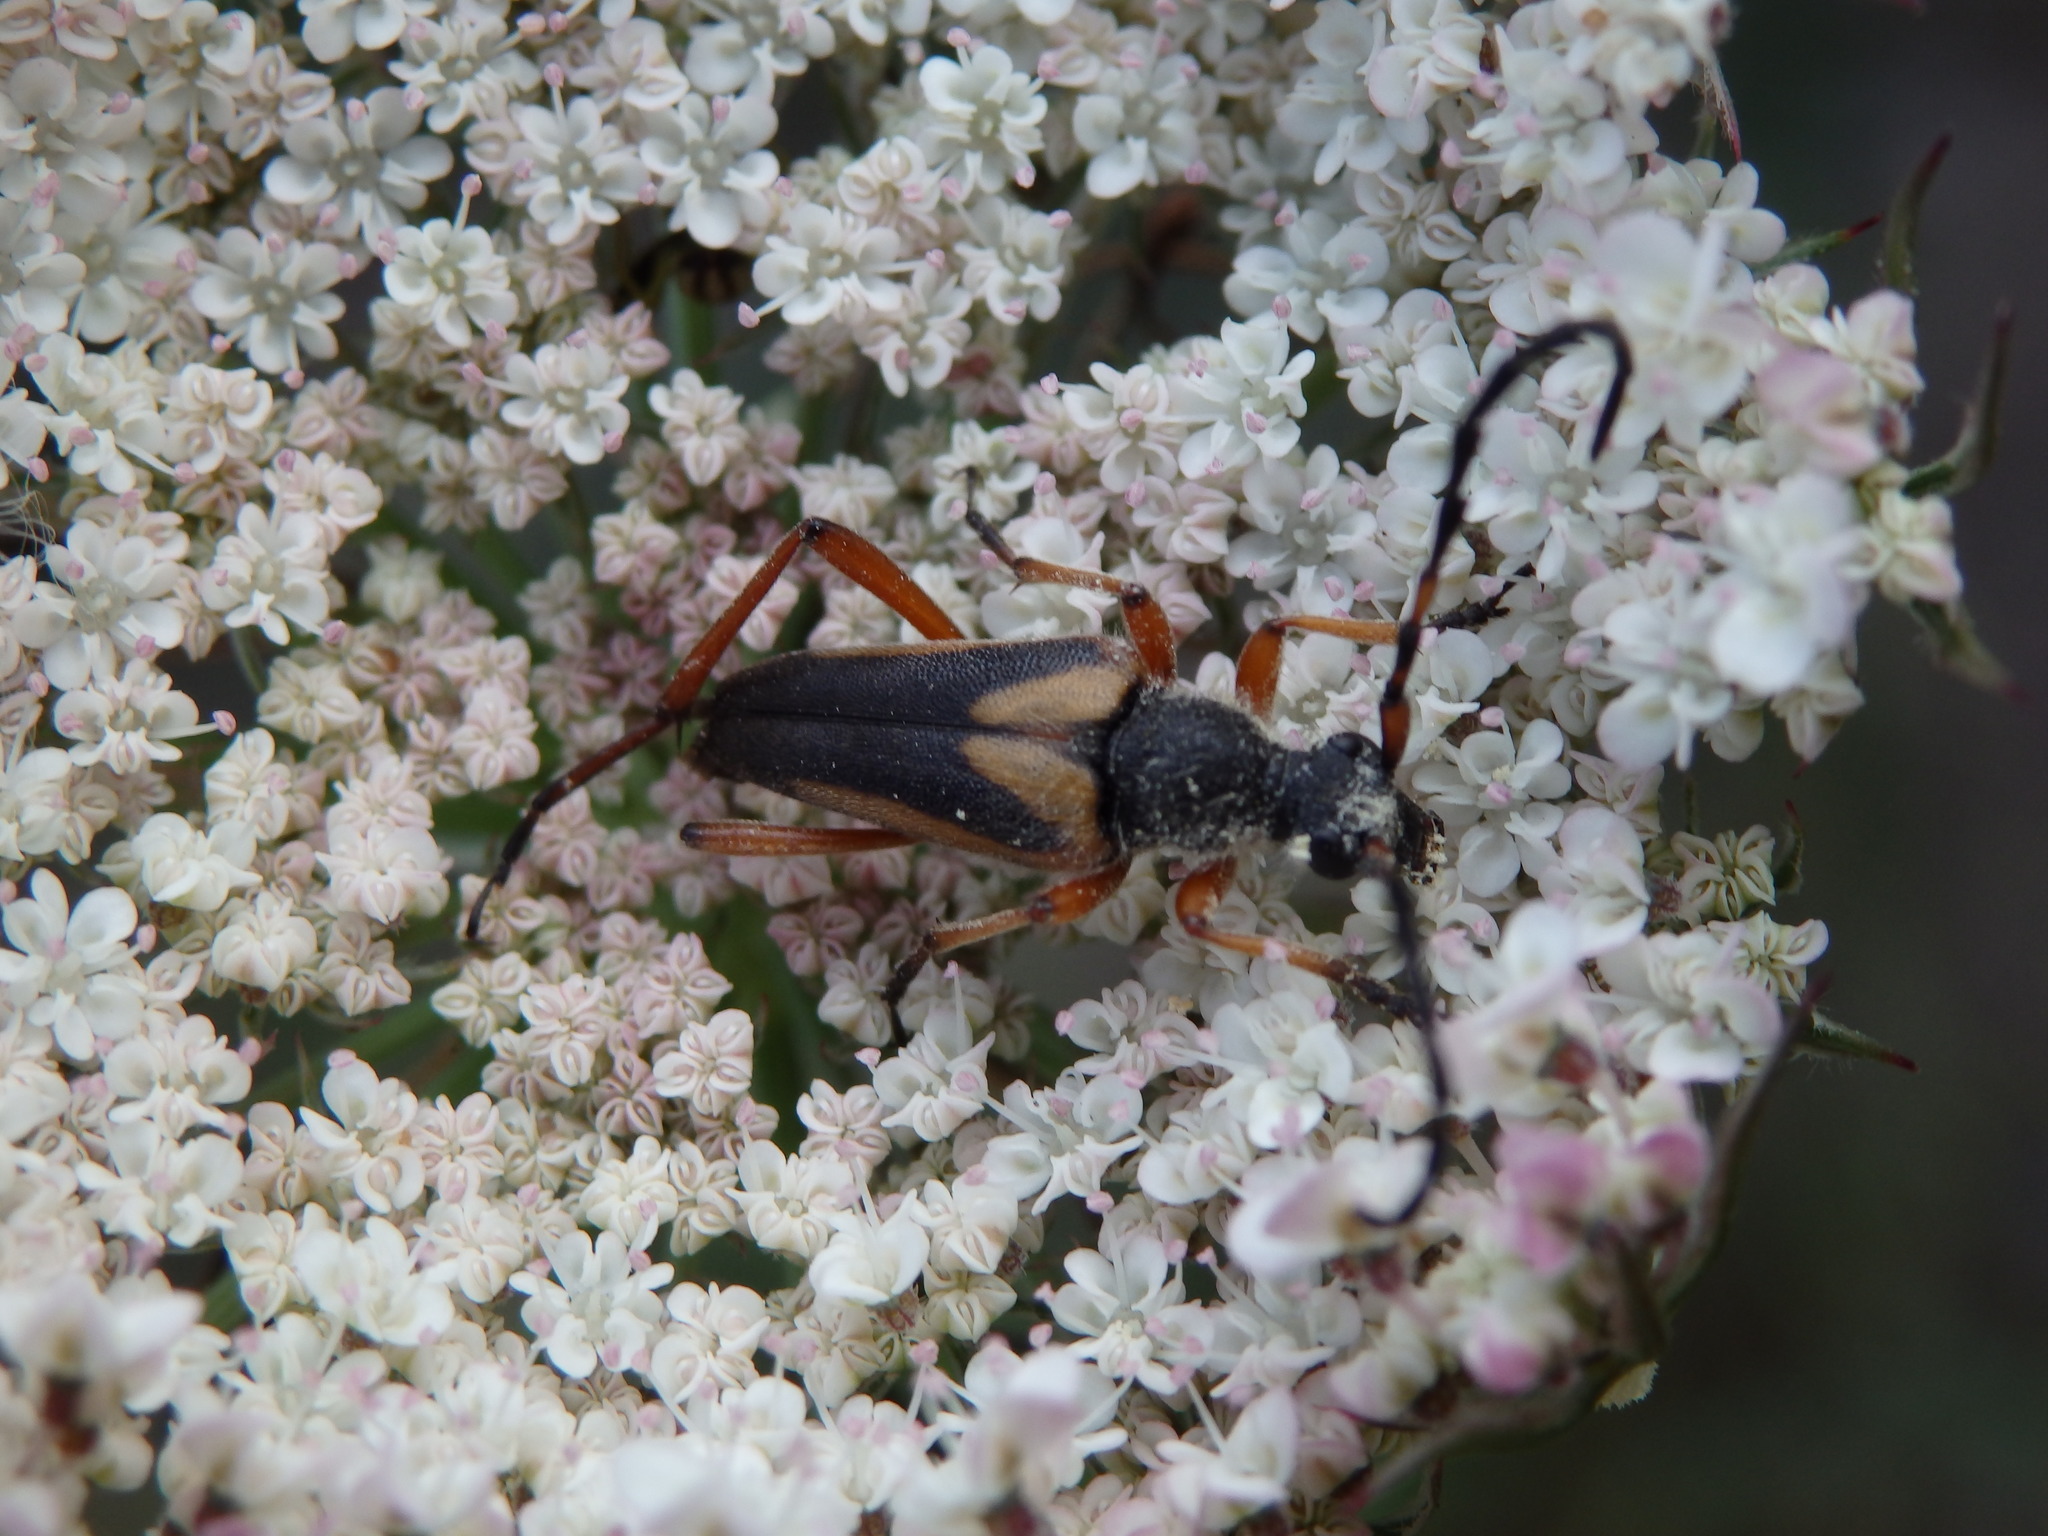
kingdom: Animalia
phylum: Arthropoda
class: Insecta
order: Coleoptera
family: Cerambycidae
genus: Stictoleptura
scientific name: Stictoleptura stragulata
